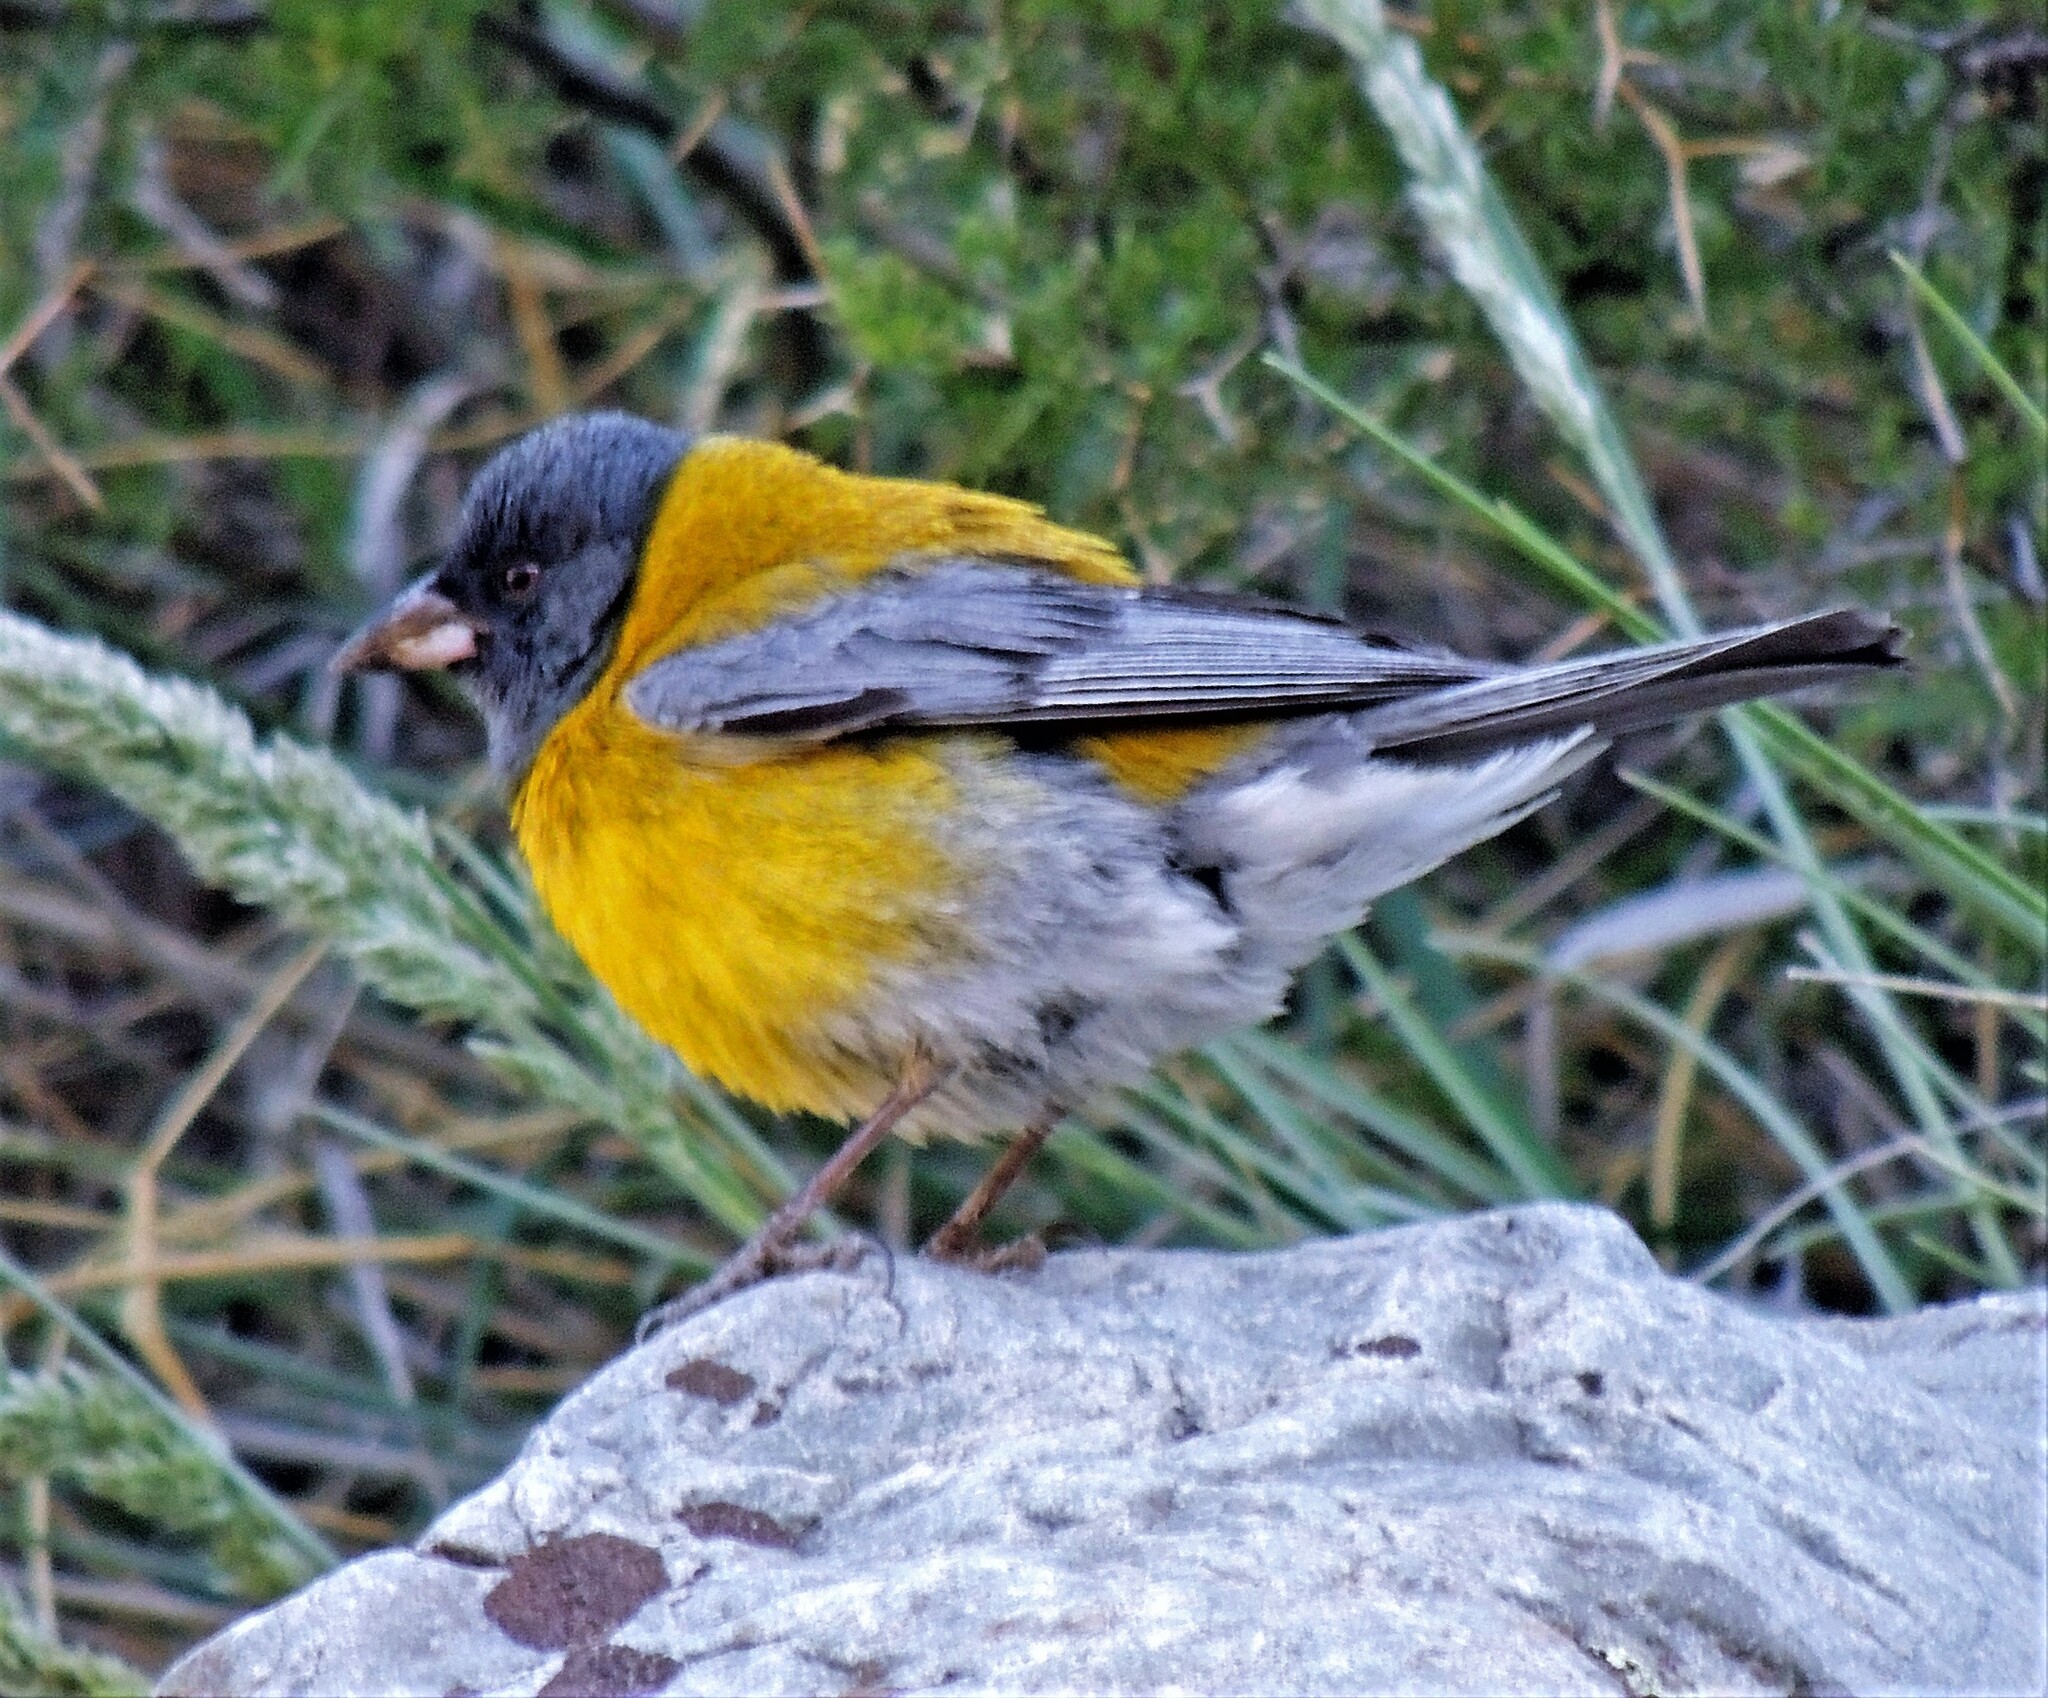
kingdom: Animalia
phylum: Chordata
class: Aves
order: Passeriformes
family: Thraupidae
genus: Phrygilus
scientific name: Phrygilus gayi
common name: Grey-hooded sierra finch
